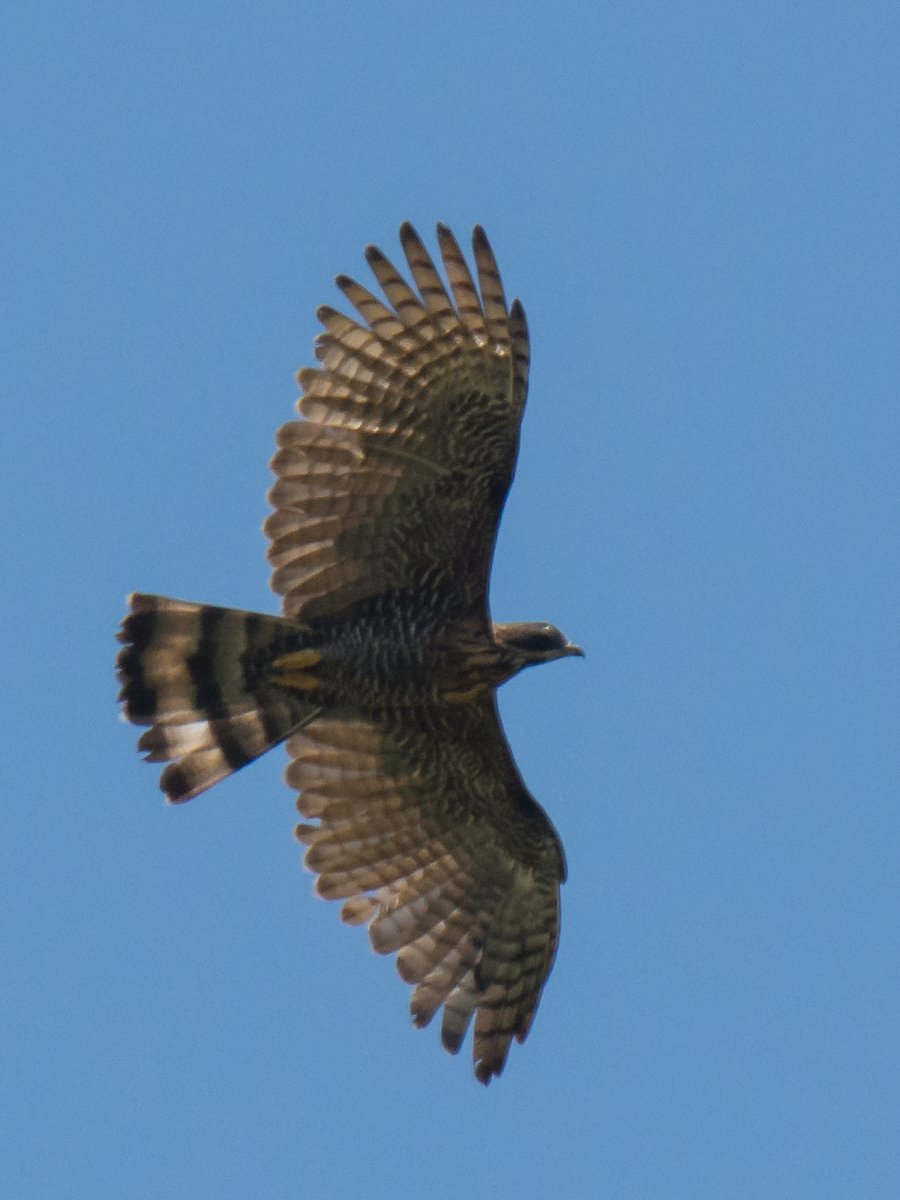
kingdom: Animalia
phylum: Chordata
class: Aves
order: Accipitriformes
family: Accipitridae
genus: Pernis
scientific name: Pernis celebensis
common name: Barred honey buzzard
